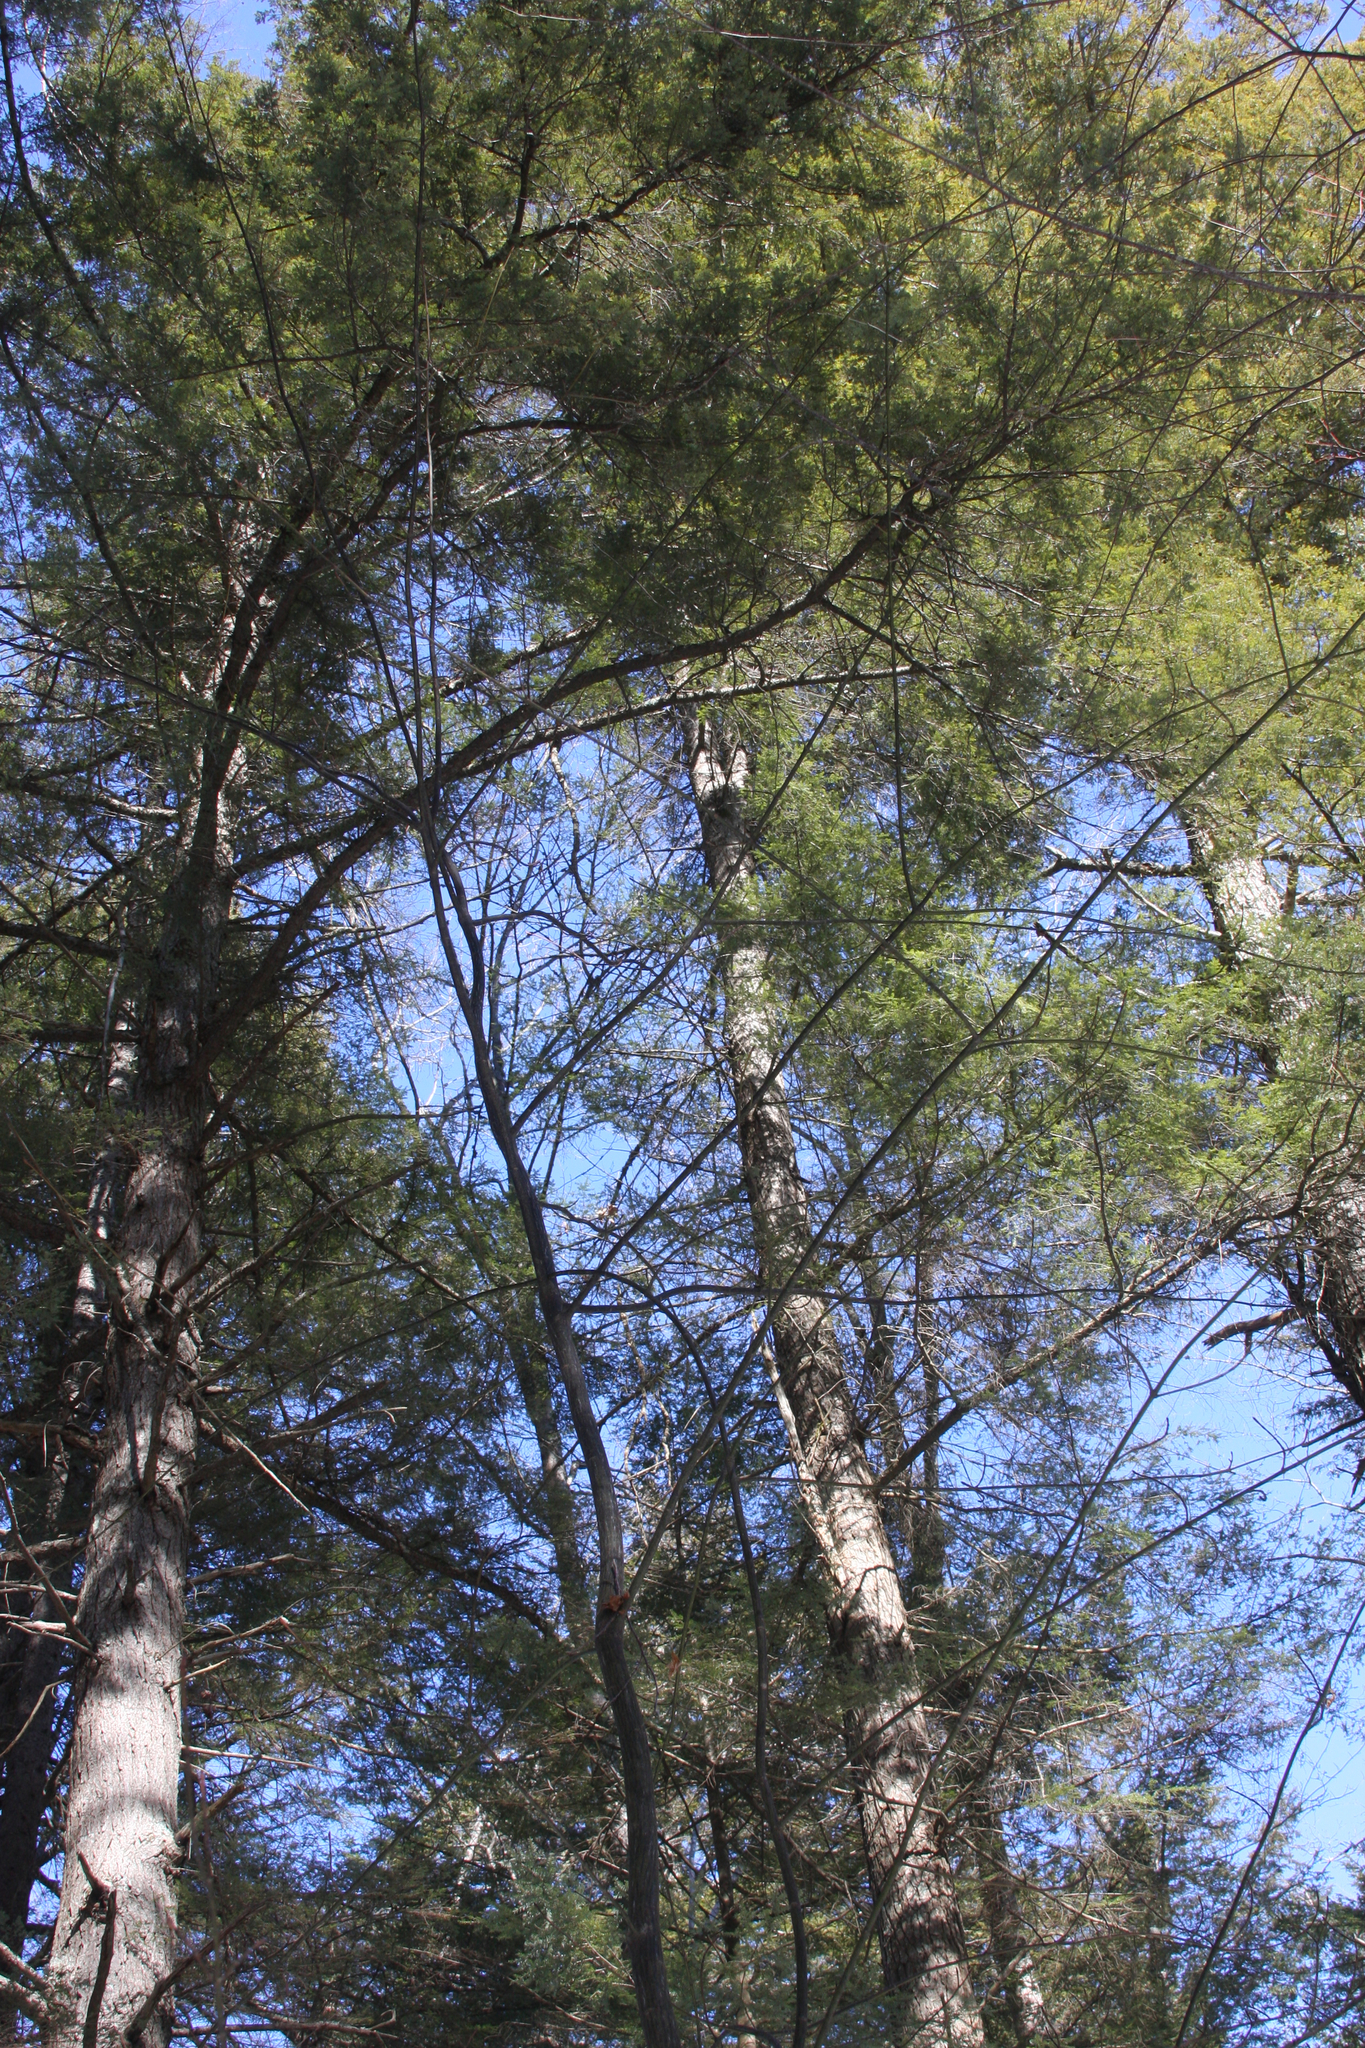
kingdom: Plantae
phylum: Tracheophyta
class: Magnoliopsida
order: Sapindales
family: Sapindaceae
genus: Acer
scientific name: Acer pensylvanicum
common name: Moosewood
